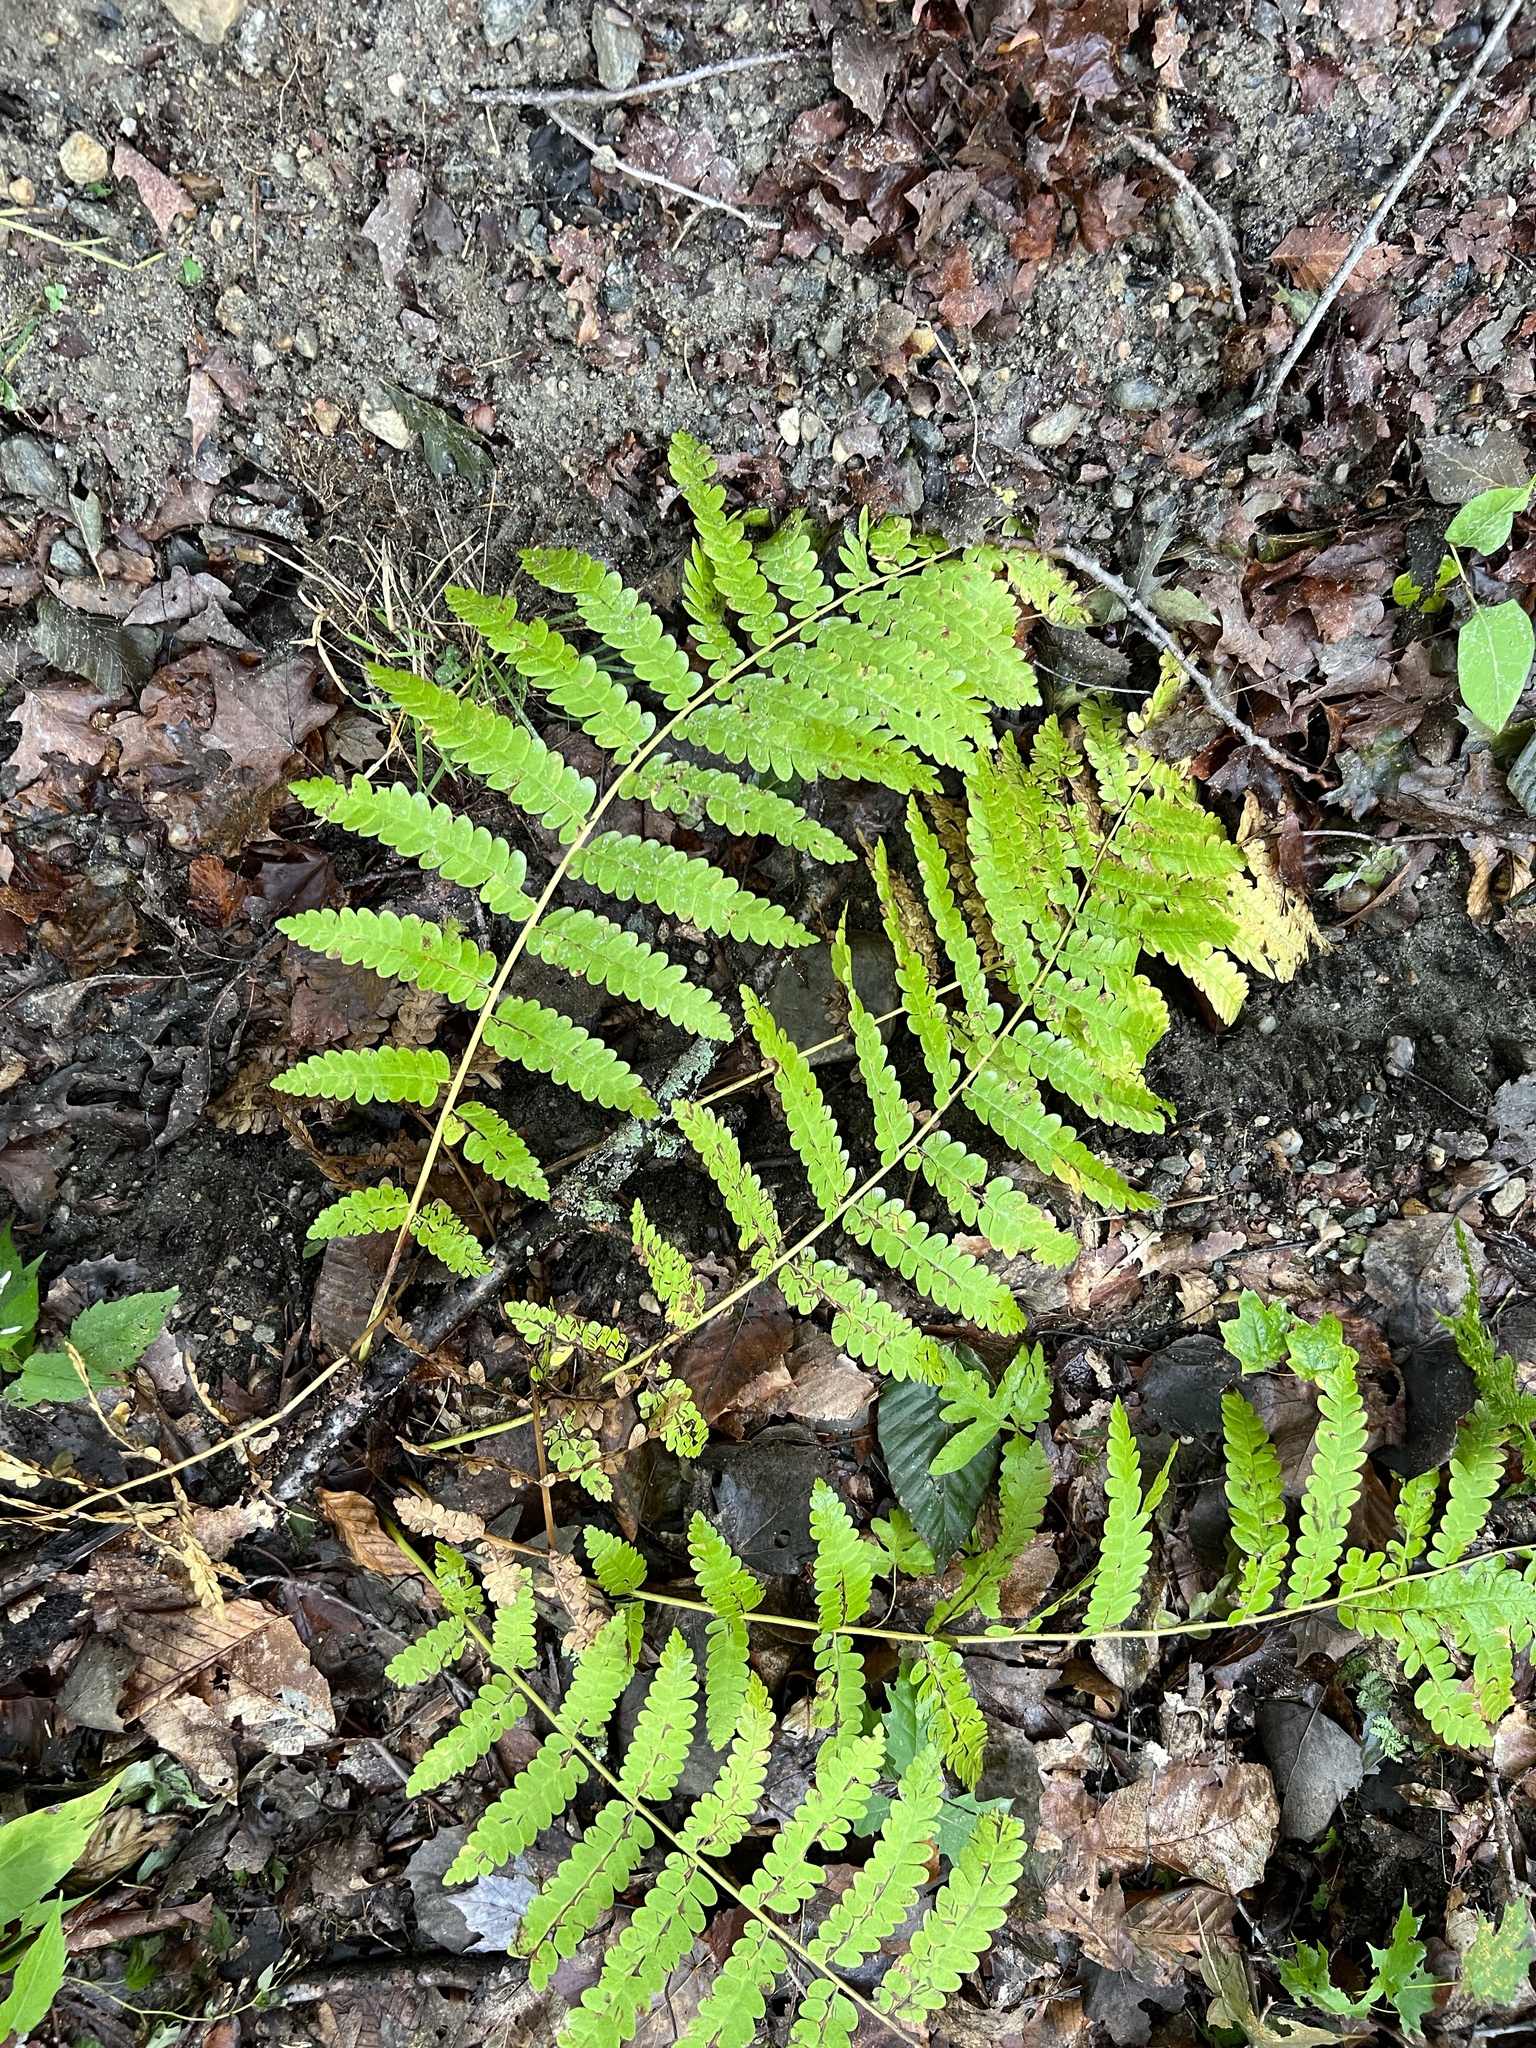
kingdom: Plantae
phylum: Tracheophyta
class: Polypodiopsida
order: Osmundales
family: Osmundaceae
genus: Claytosmunda
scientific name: Claytosmunda claytoniana
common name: Clayton's fern
